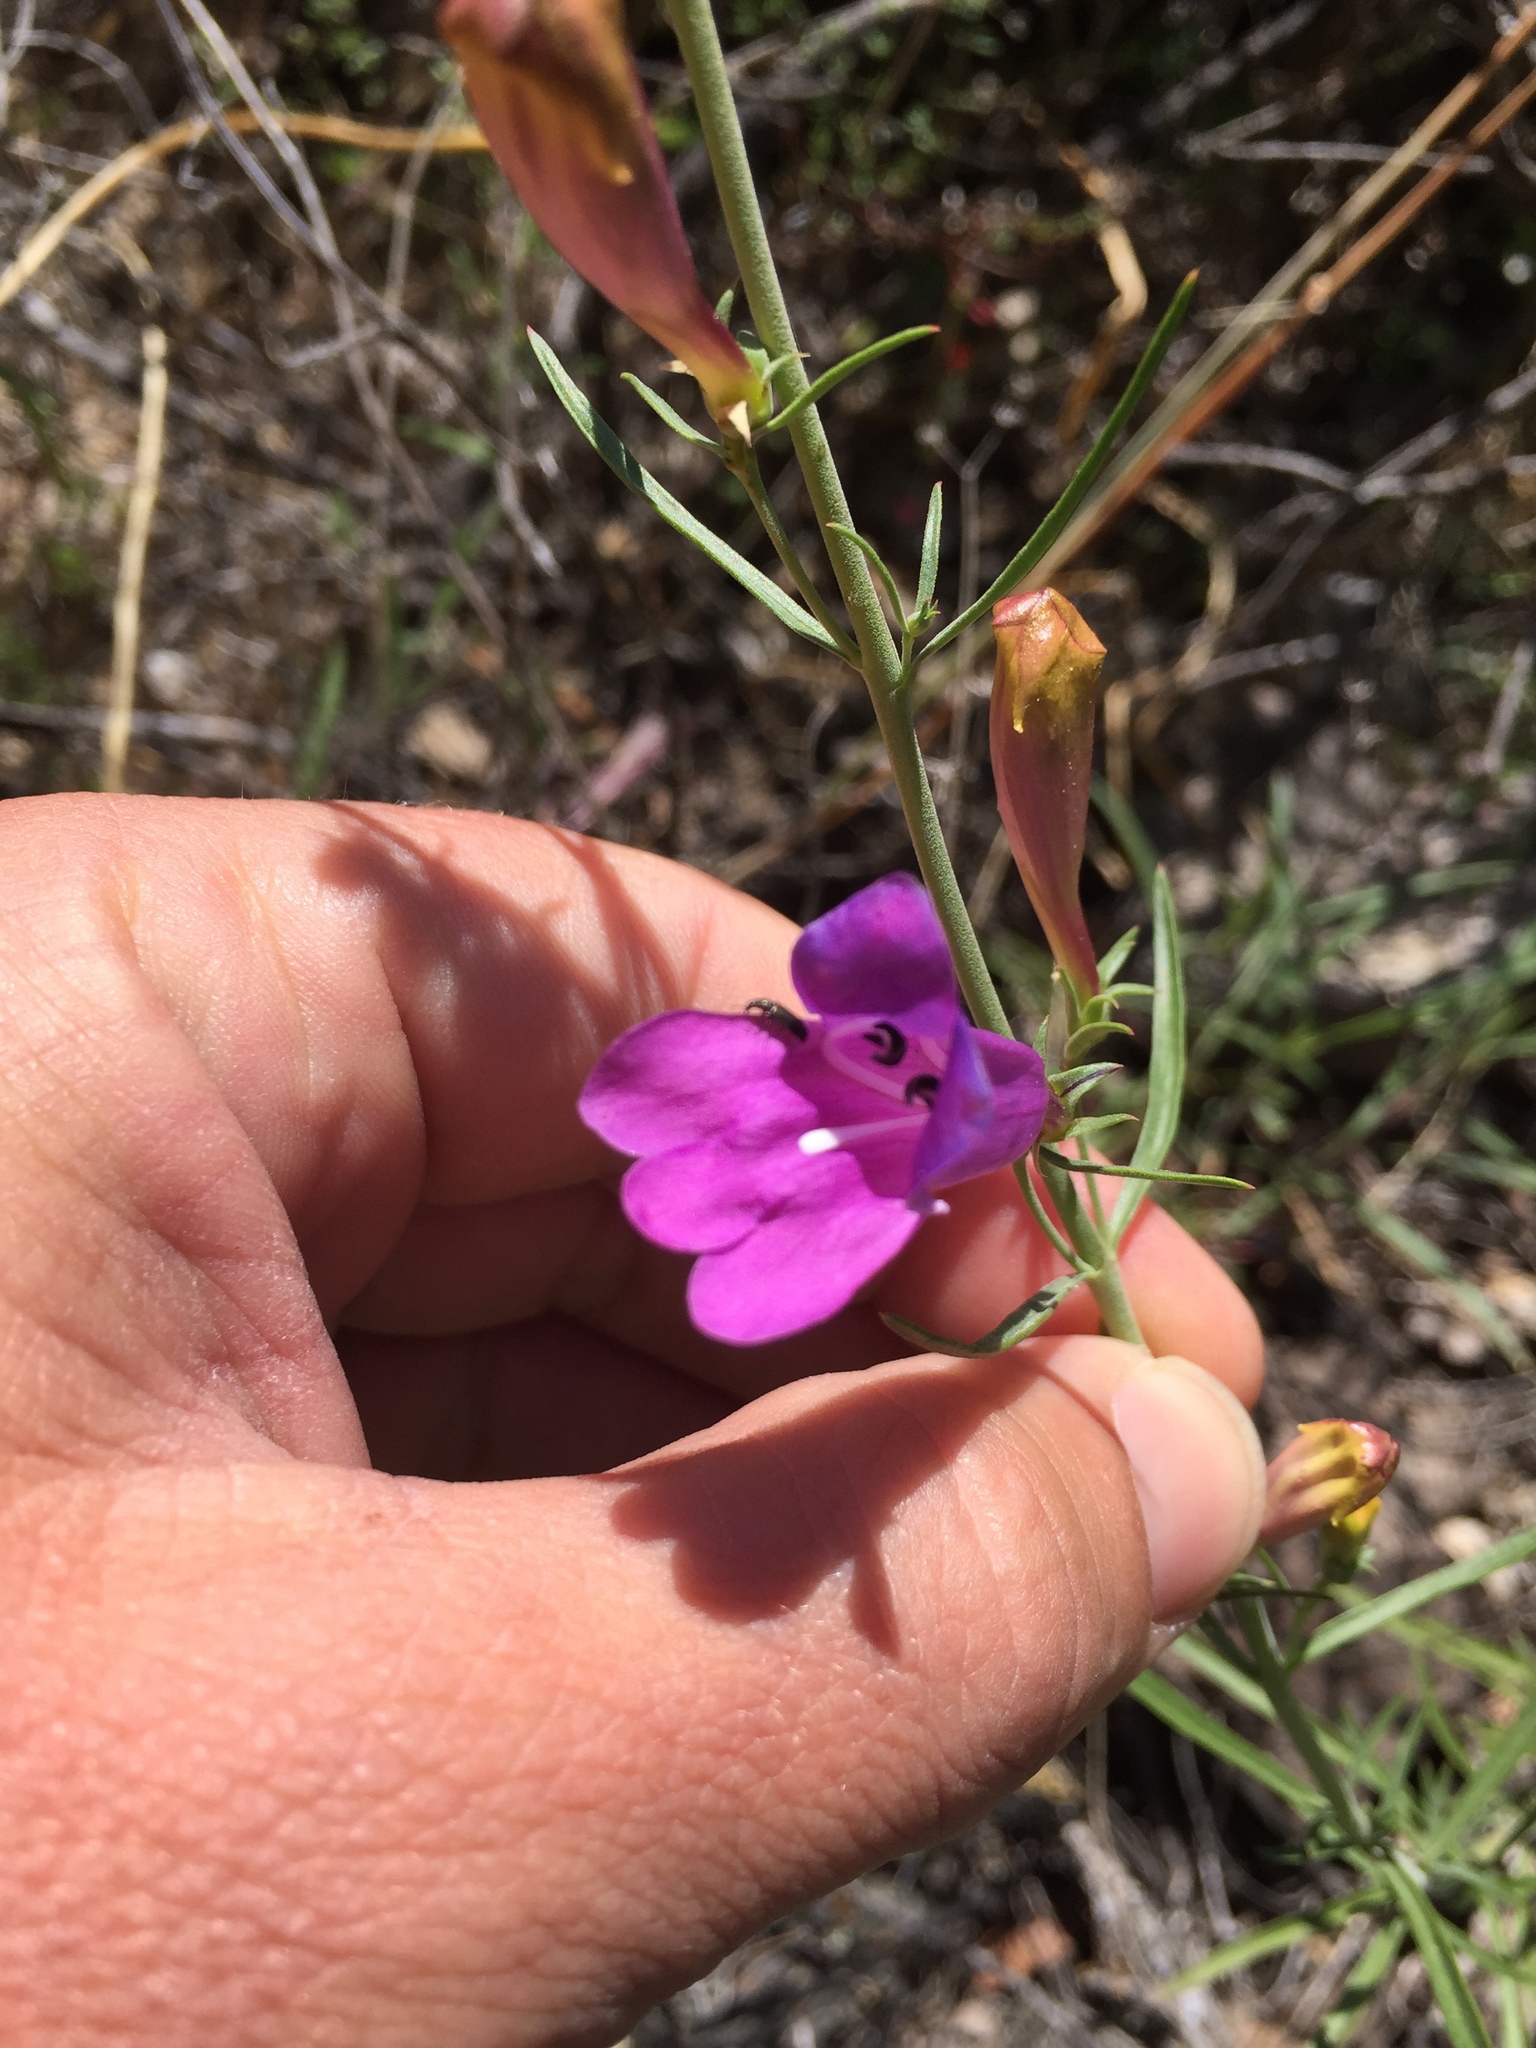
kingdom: Plantae
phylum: Tracheophyta
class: Magnoliopsida
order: Lamiales
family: Plantaginaceae
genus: Penstemon
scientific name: Penstemon heterophyllus
